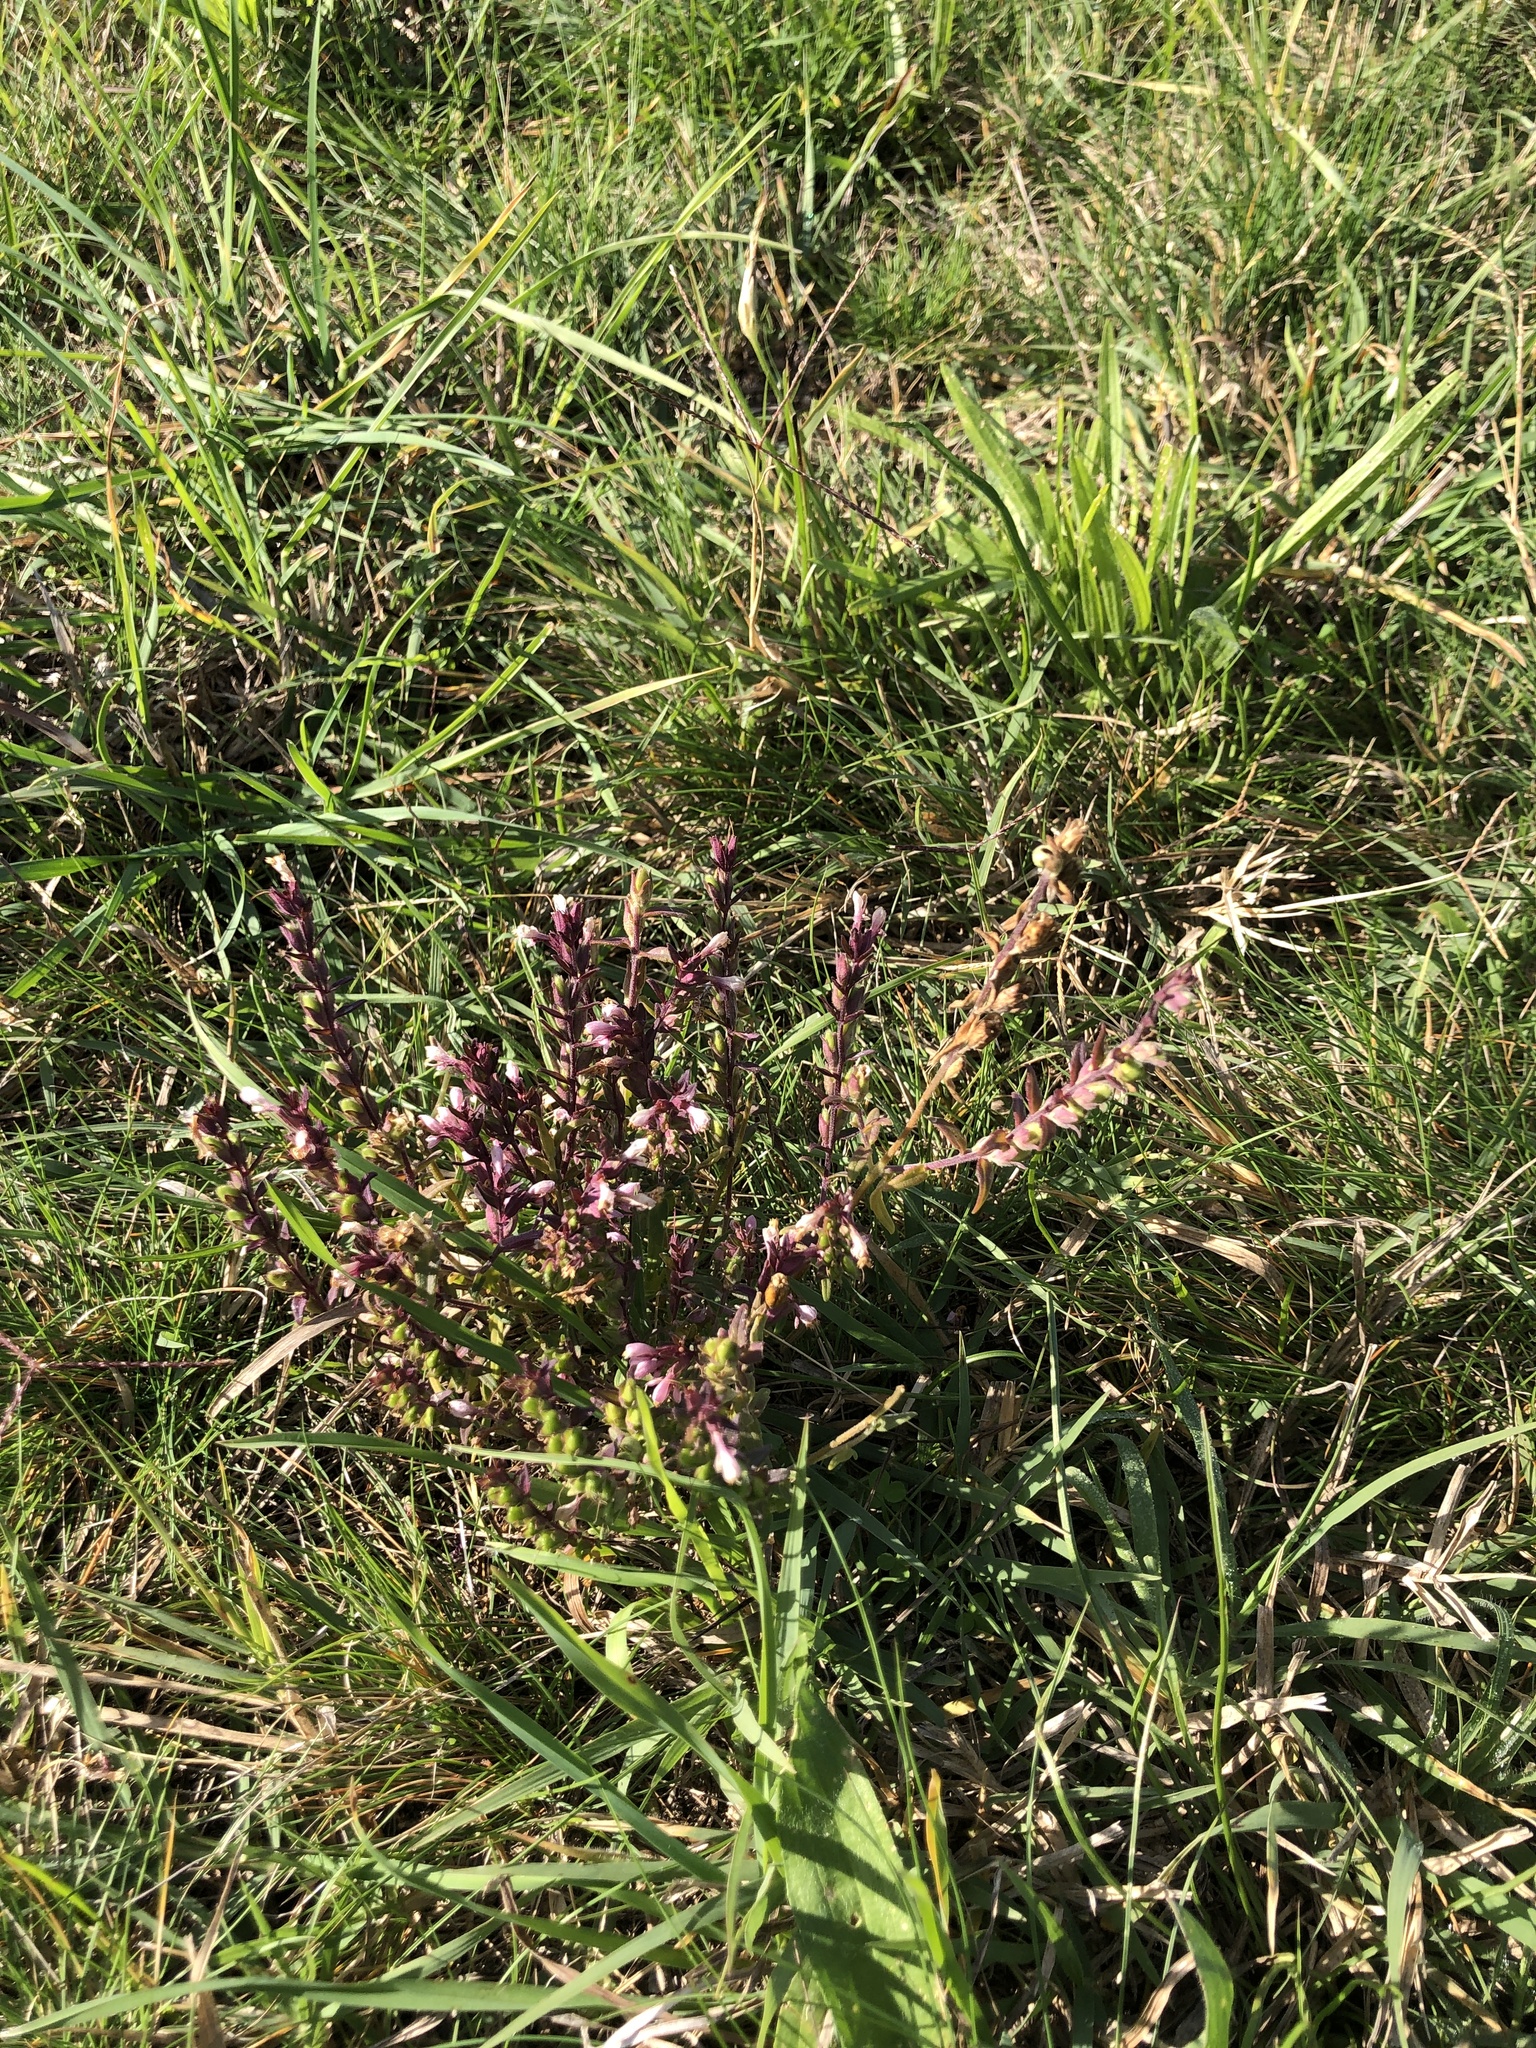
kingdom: Plantae
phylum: Tracheophyta
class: Magnoliopsida
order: Lamiales
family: Orobanchaceae
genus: Odontites
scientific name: Odontites vulgaris
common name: Broomrape
